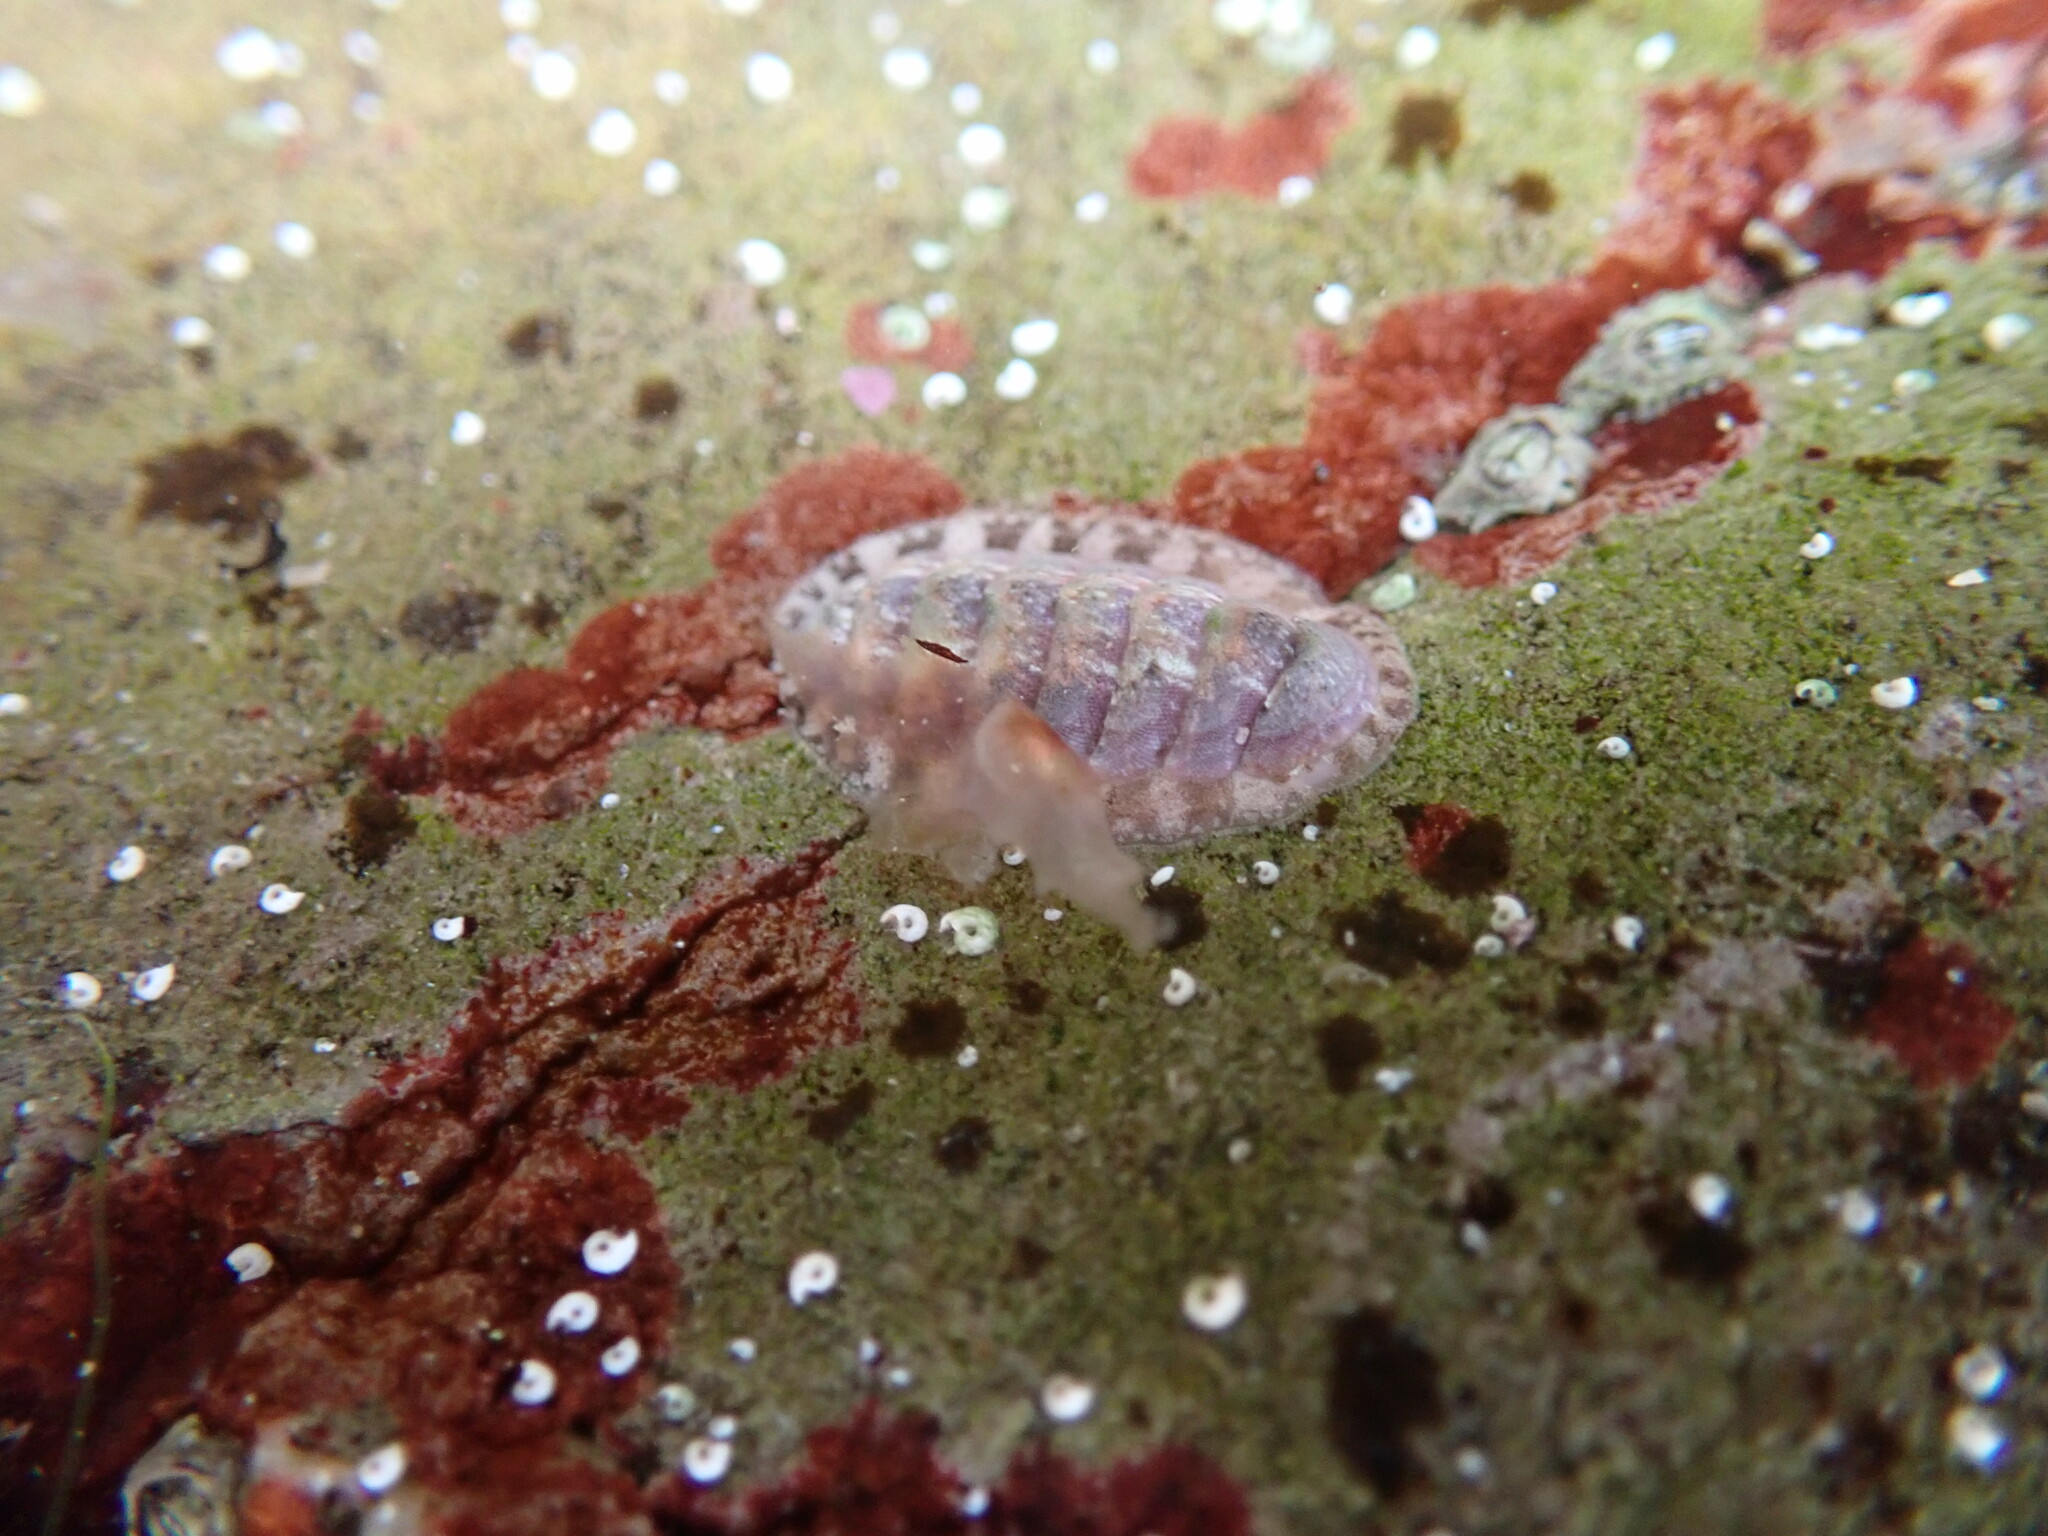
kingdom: Animalia
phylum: Mollusca
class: Polyplacophora
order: Chitonida
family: Tonicellidae
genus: Lepidochitona
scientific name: Lepidochitona cinerea
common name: Cinereous chiton
